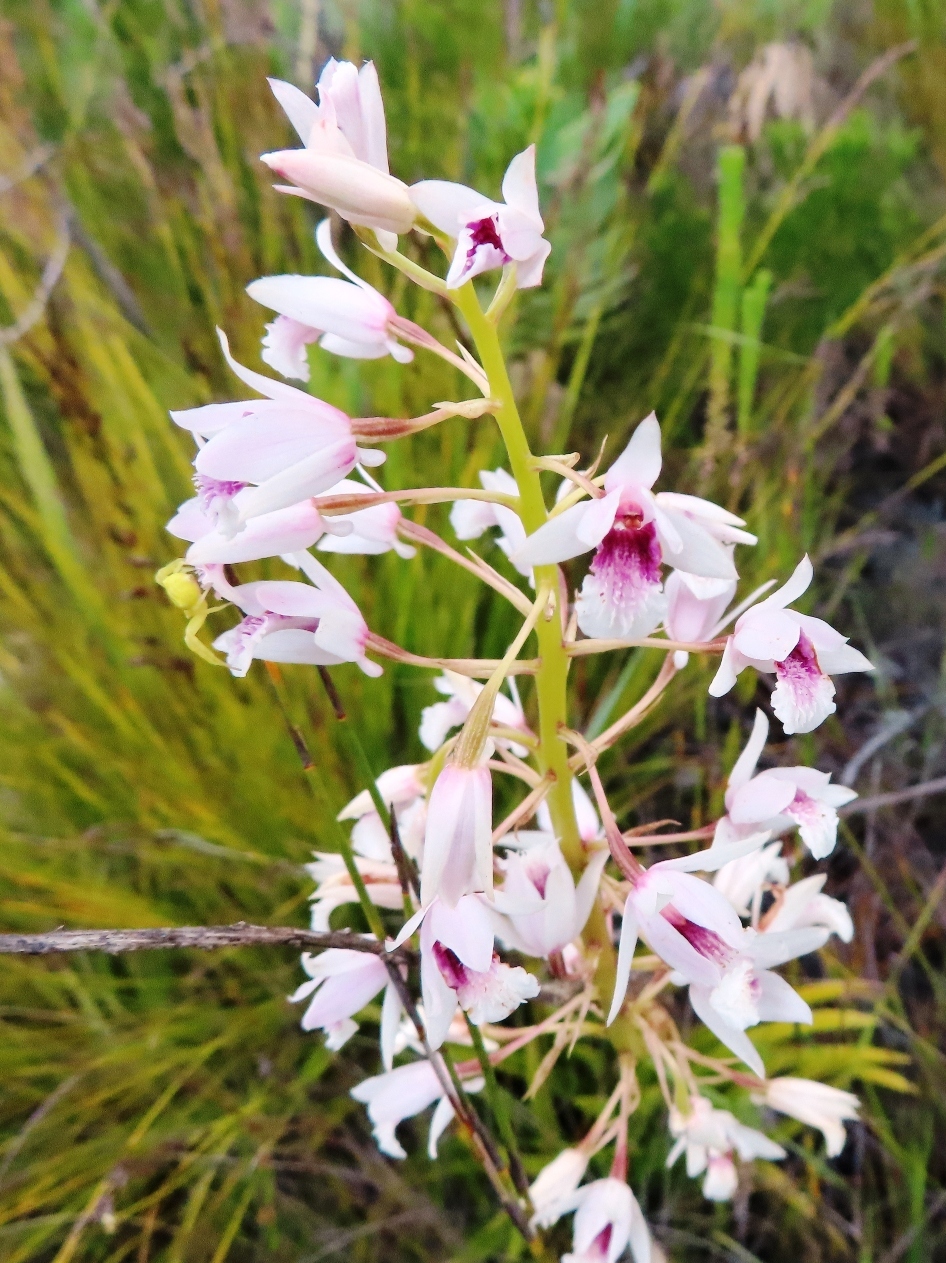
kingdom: Plantae
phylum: Tracheophyta
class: Liliopsida
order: Asparagales
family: Orchidaceae
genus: Eulophia
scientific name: Eulophia barbata
